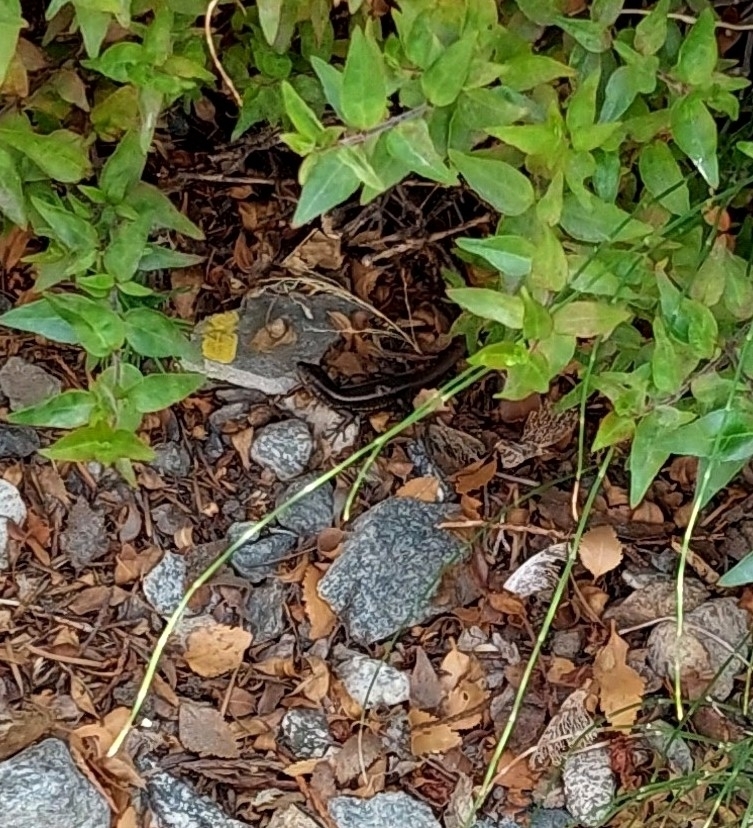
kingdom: Animalia
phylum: Chordata
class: Squamata
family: Liolaemidae
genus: Liolaemus
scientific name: Liolaemus pictus
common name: Painted tree iguana
